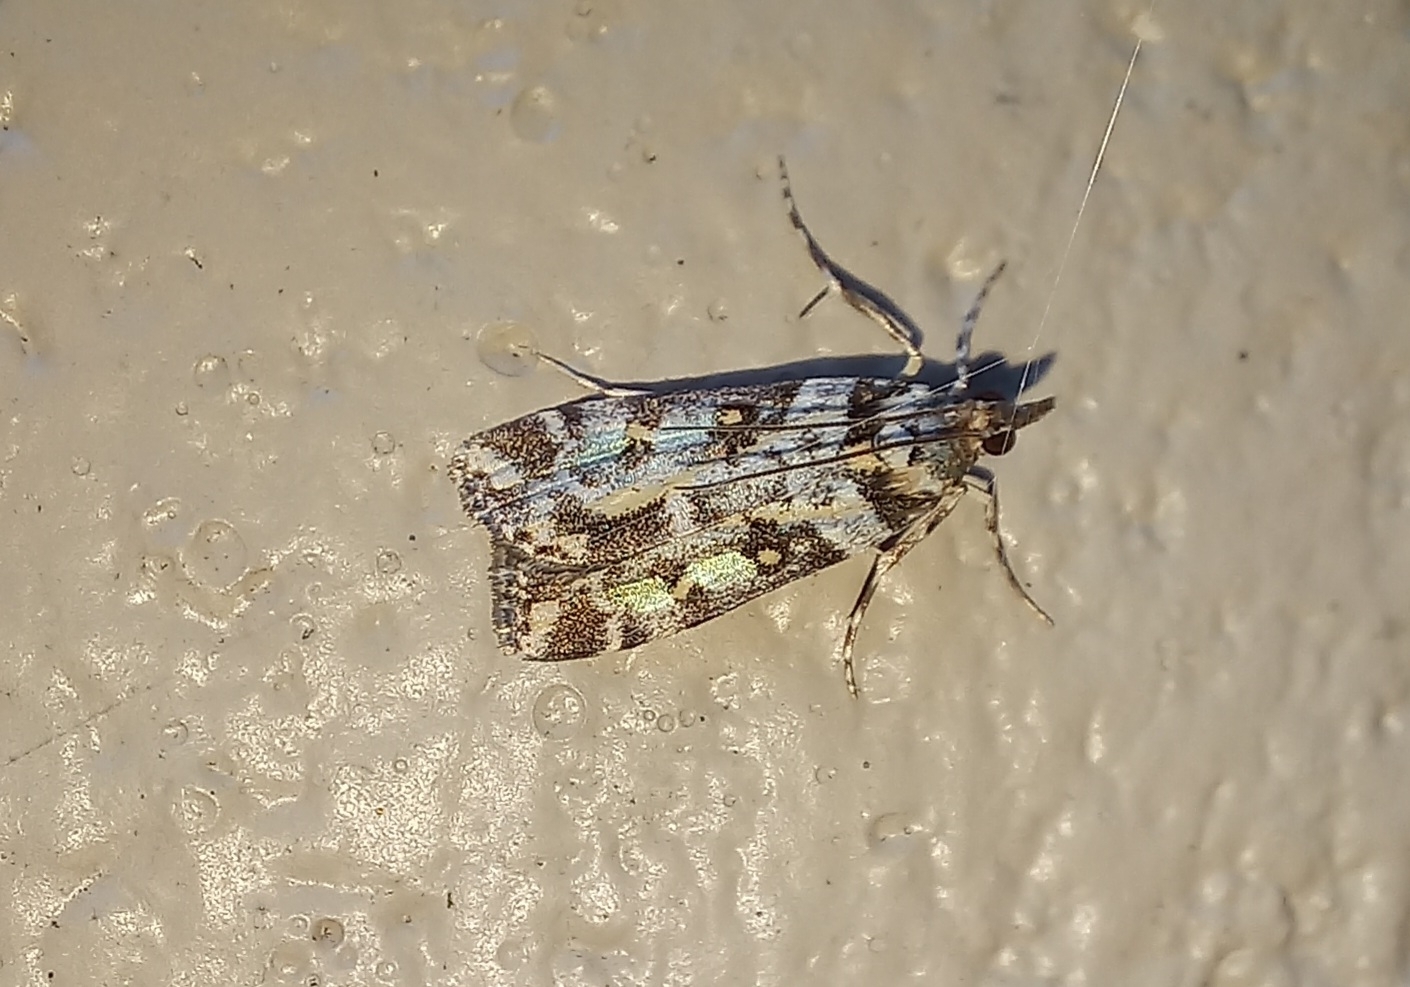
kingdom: Animalia
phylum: Arthropoda
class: Insecta
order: Lepidoptera
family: Crambidae
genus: Eudonia
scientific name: Eudonia diphtheralis
